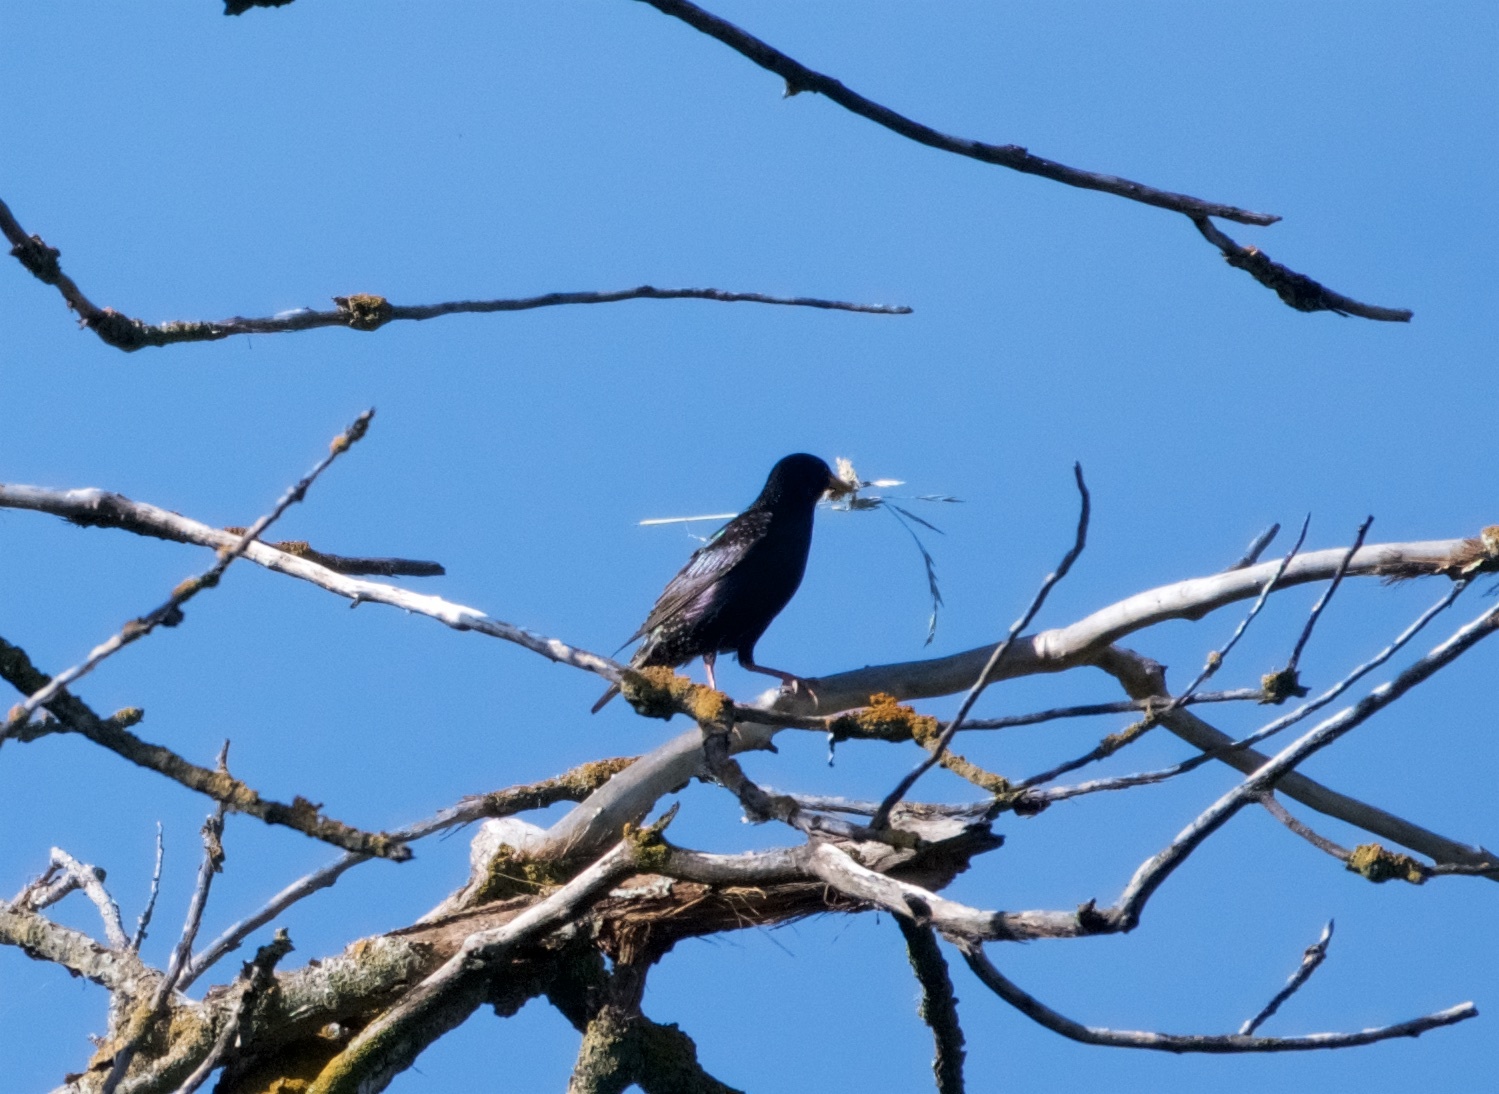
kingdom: Animalia
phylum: Chordata
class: Aves
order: Passeriformes
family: Sturnidae
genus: Sturnus
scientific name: Sturnus vulgaris
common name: Common starling
